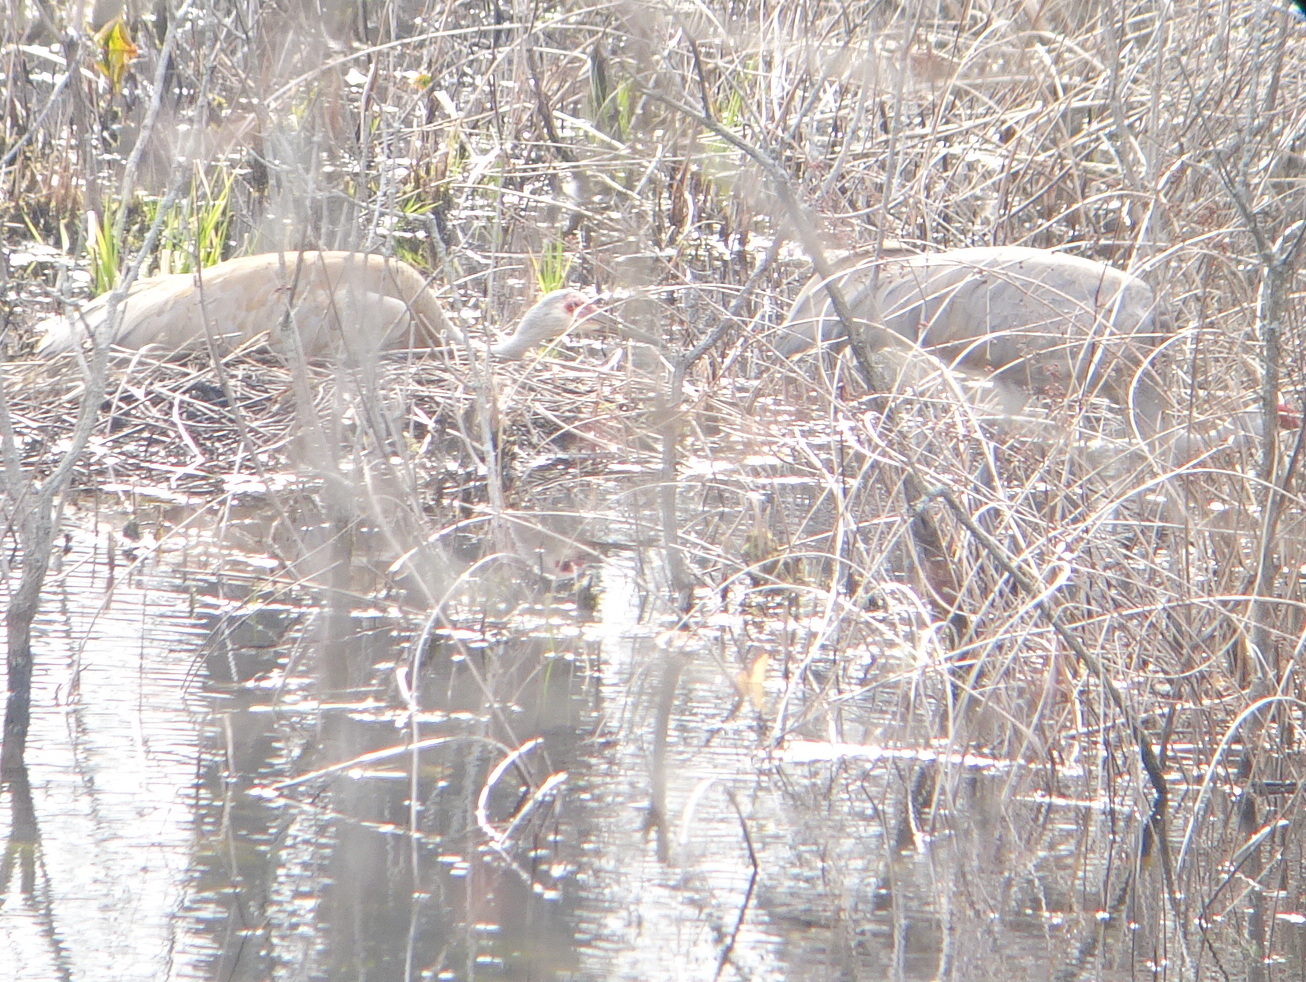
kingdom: Animalia
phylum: Chordata
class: Aves
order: Gruiformes
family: Gruidae
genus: Grus
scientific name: Grus canadensis
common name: Sandhill crane
